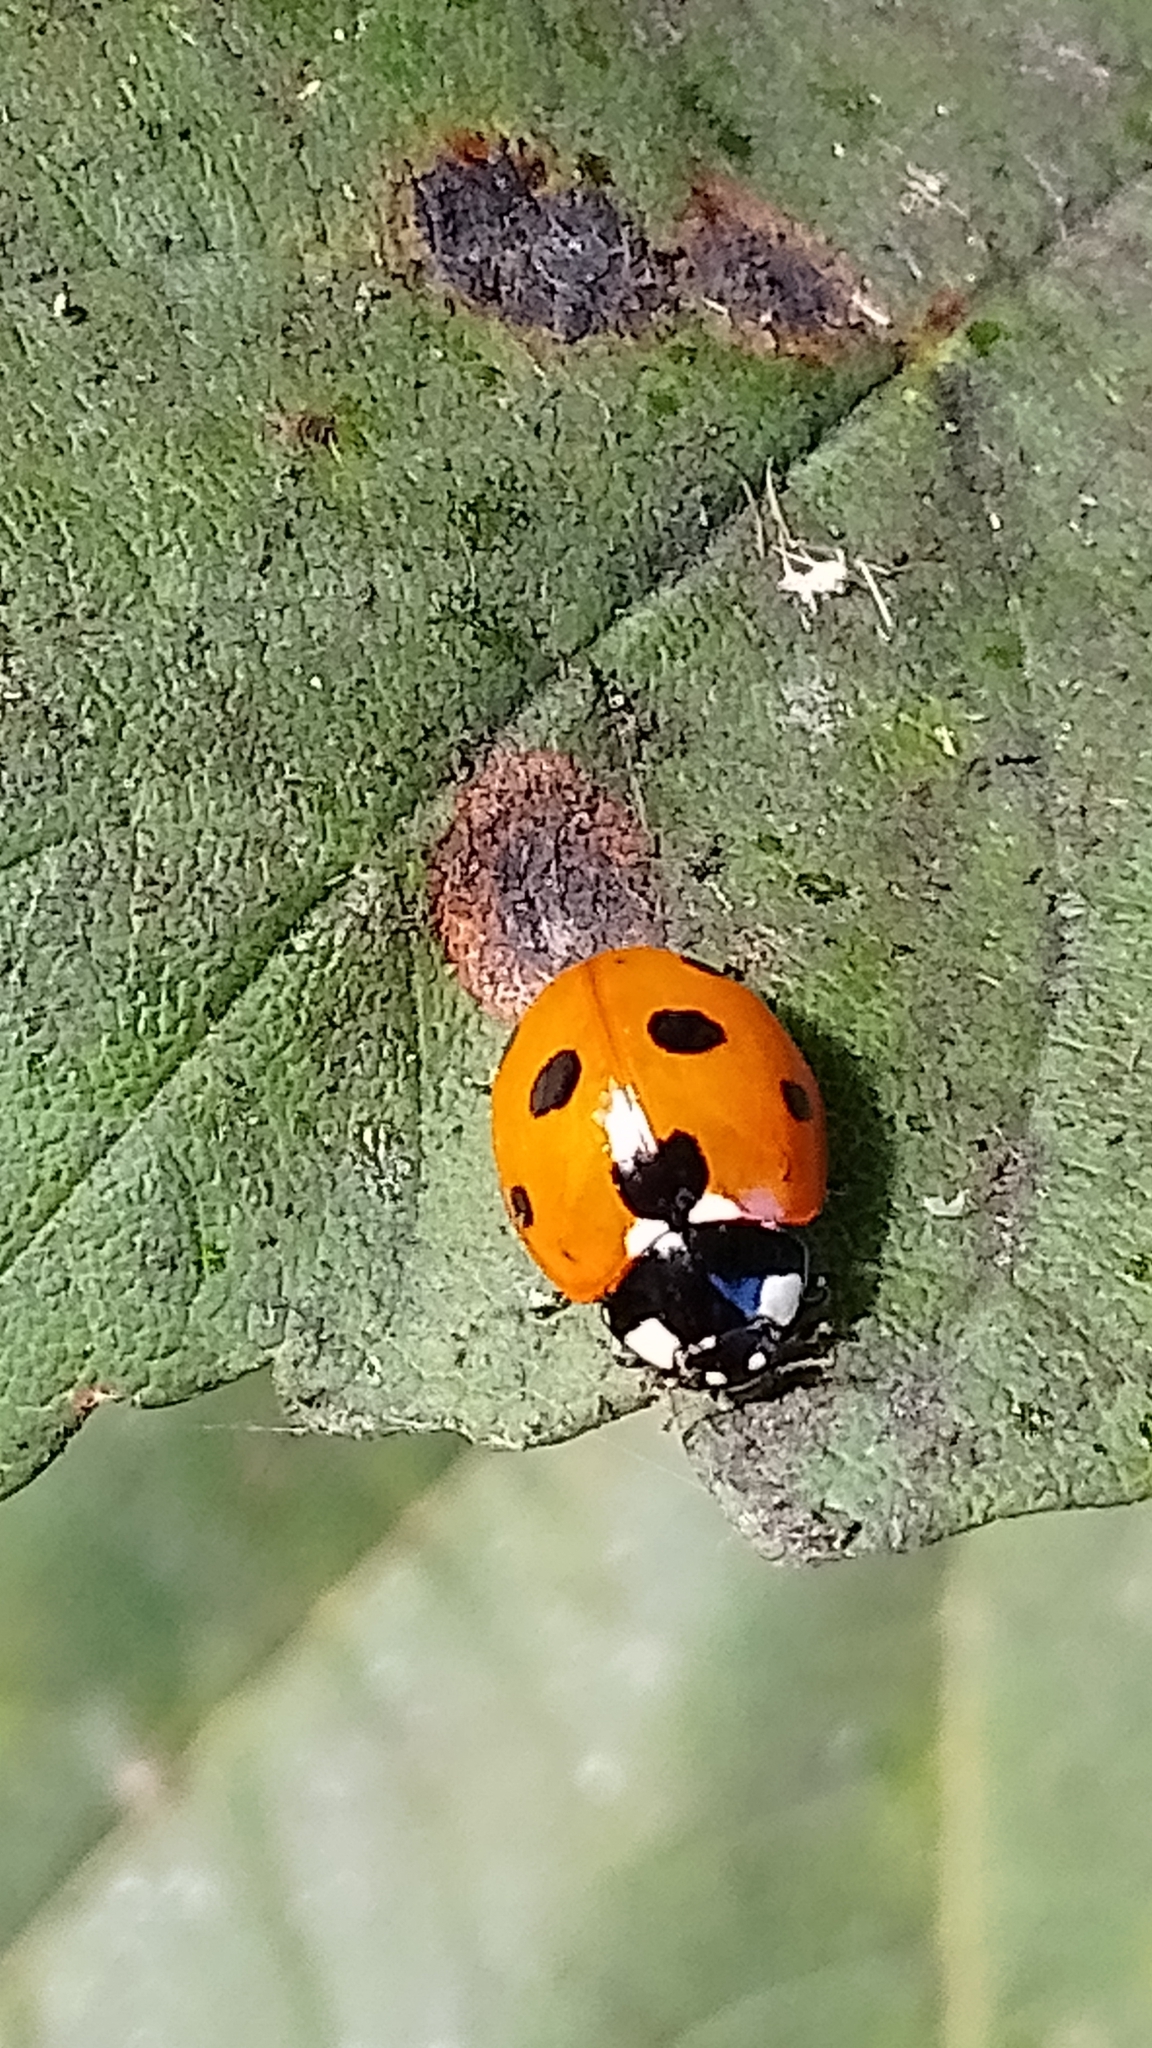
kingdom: Animalia
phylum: Arthropoda
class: Insecta
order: Coleoptera
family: Coccinellidae
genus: Coccinella
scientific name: Coccinella septempunctata
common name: Sevenspotted lady beetle
